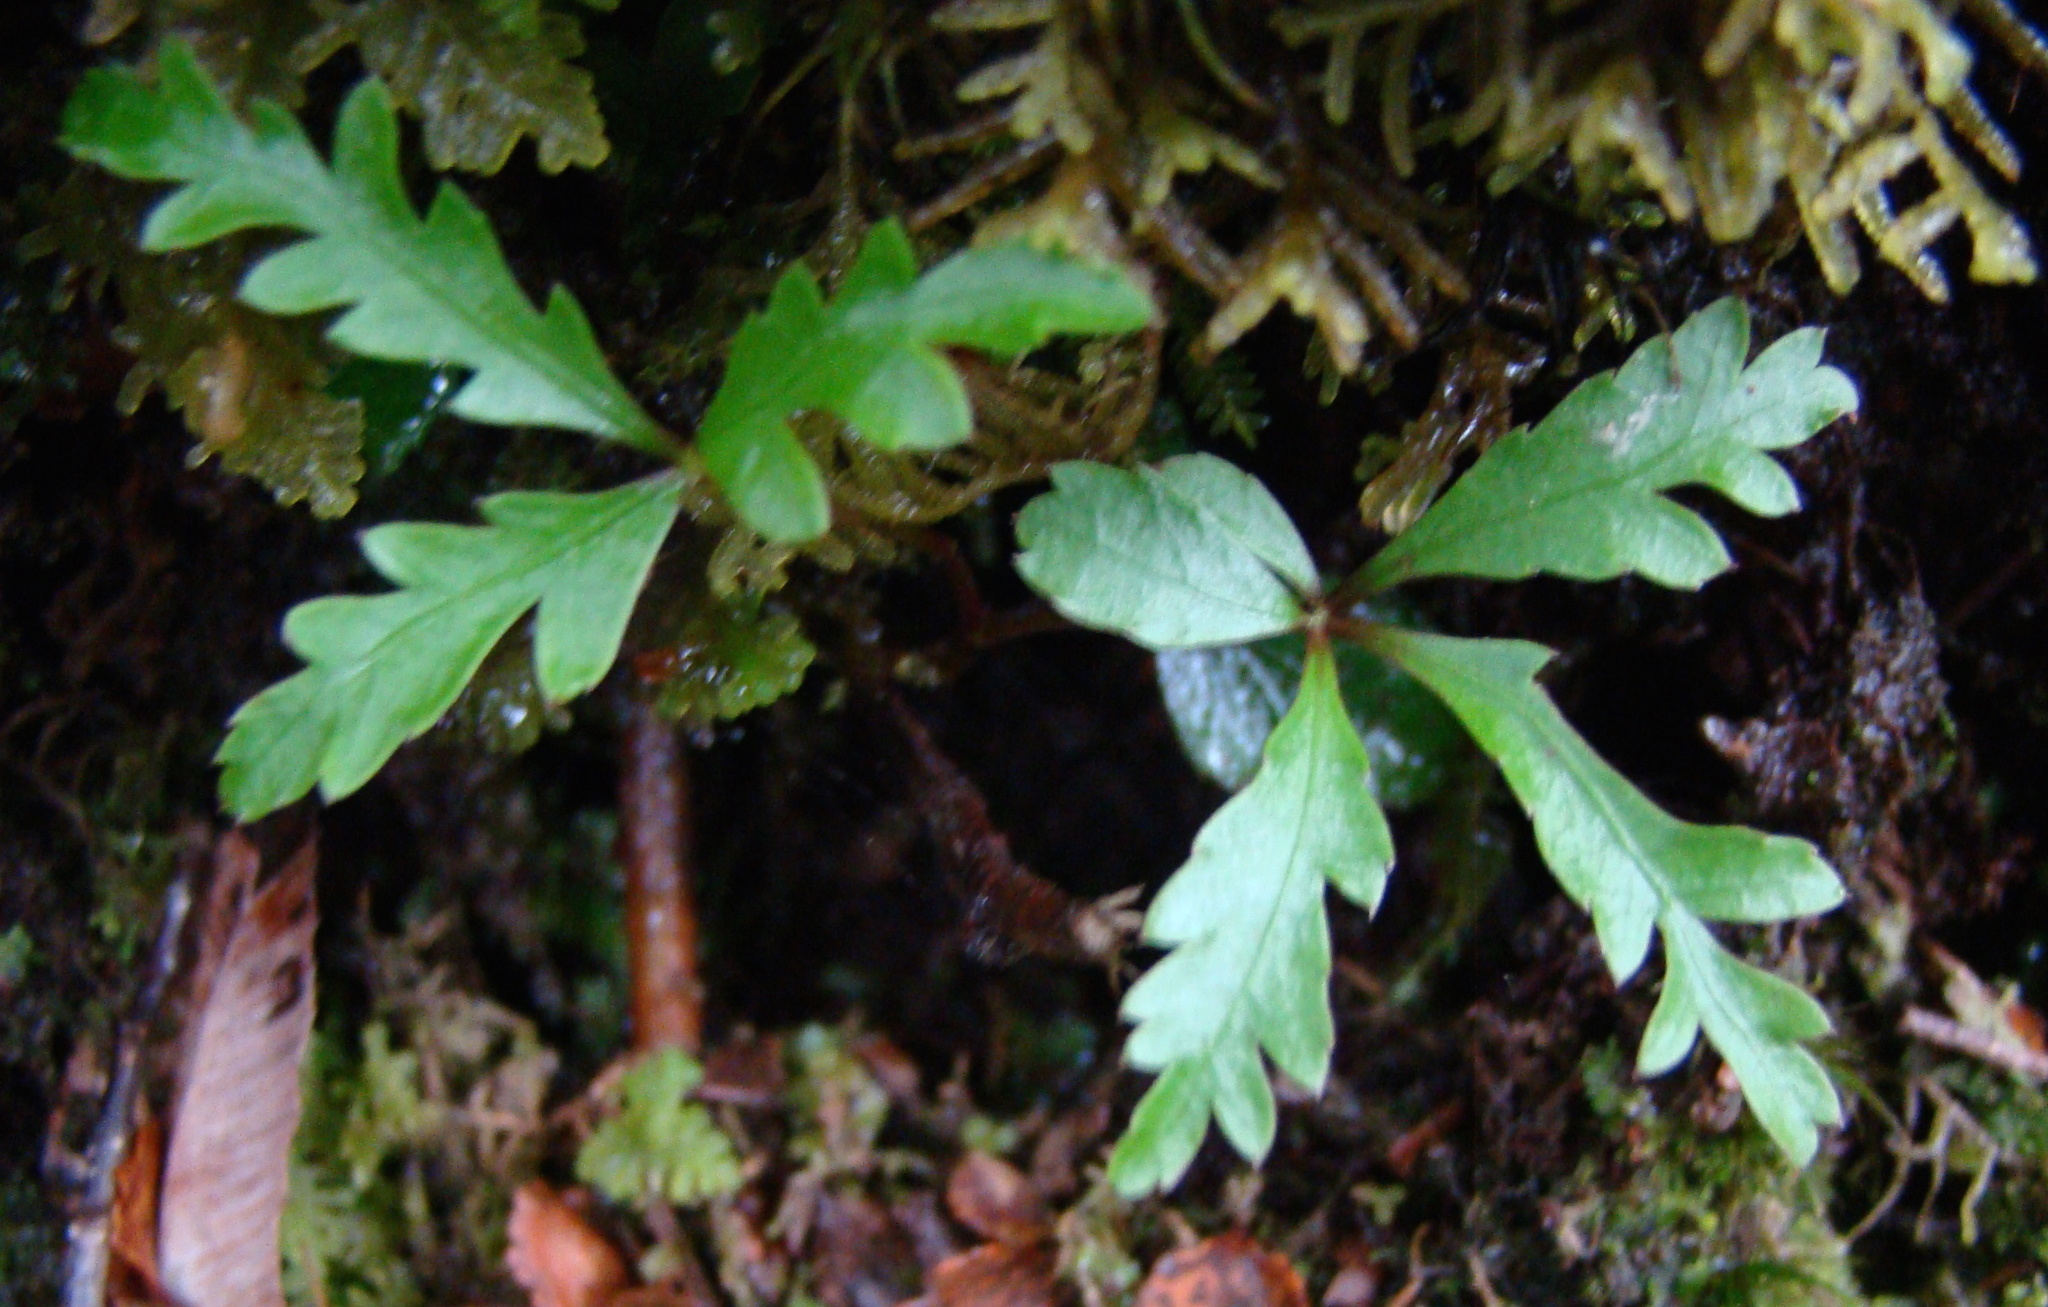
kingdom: Plantae
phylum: Tracheophyta
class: Magnoliopsida
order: Apiales
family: Araliaceae
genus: Raukaua
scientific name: Raukaua simplex
